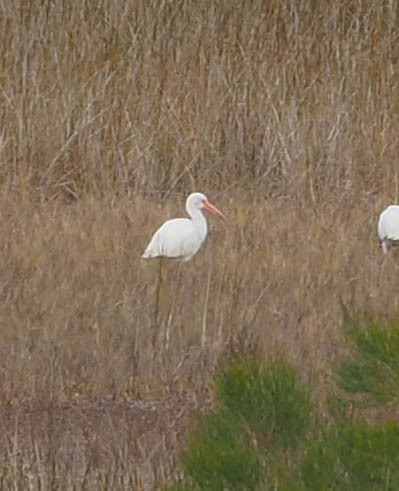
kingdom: Animalia
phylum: Chordata
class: Aves
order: Pelecaniformes
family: Threskiornithidae
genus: Eudocimus
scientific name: Eudocimus albus
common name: White ibis
